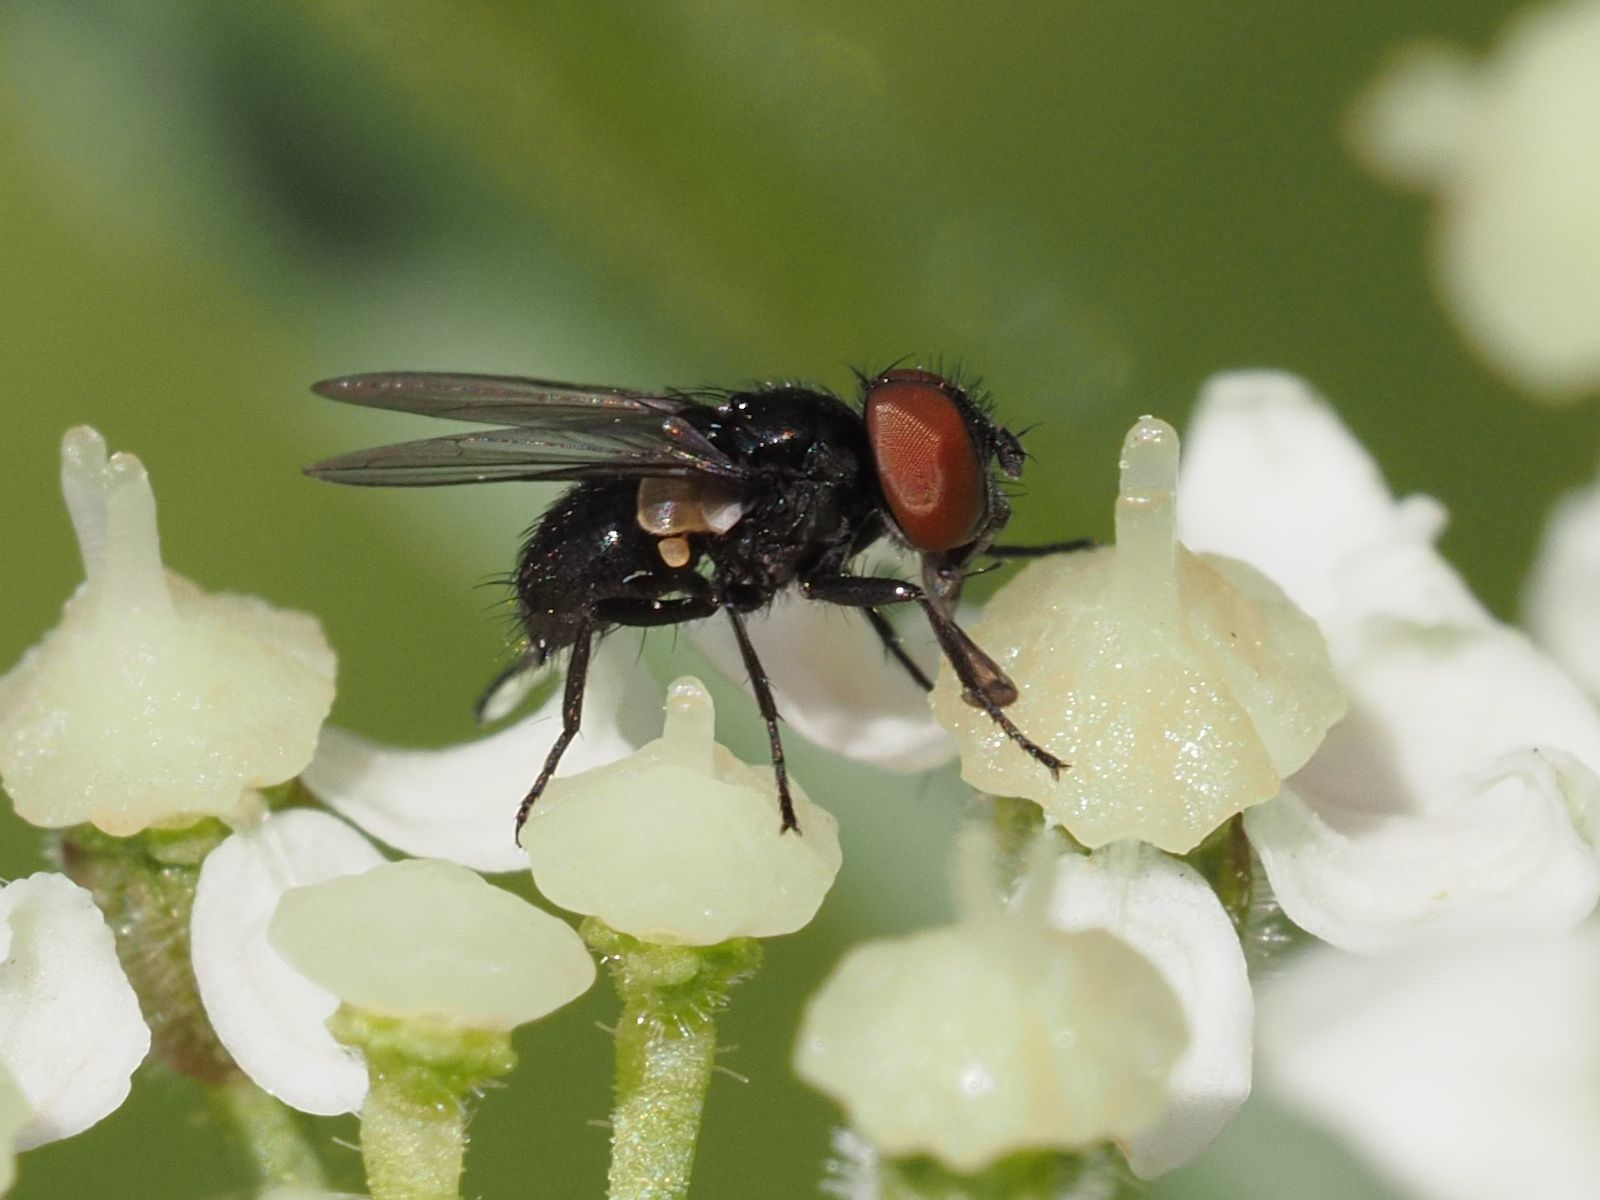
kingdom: Animalia
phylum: Arthropoda
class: Insecta
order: Diptera
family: Tachinidae
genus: Phasia
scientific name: Phasia barbifrons
